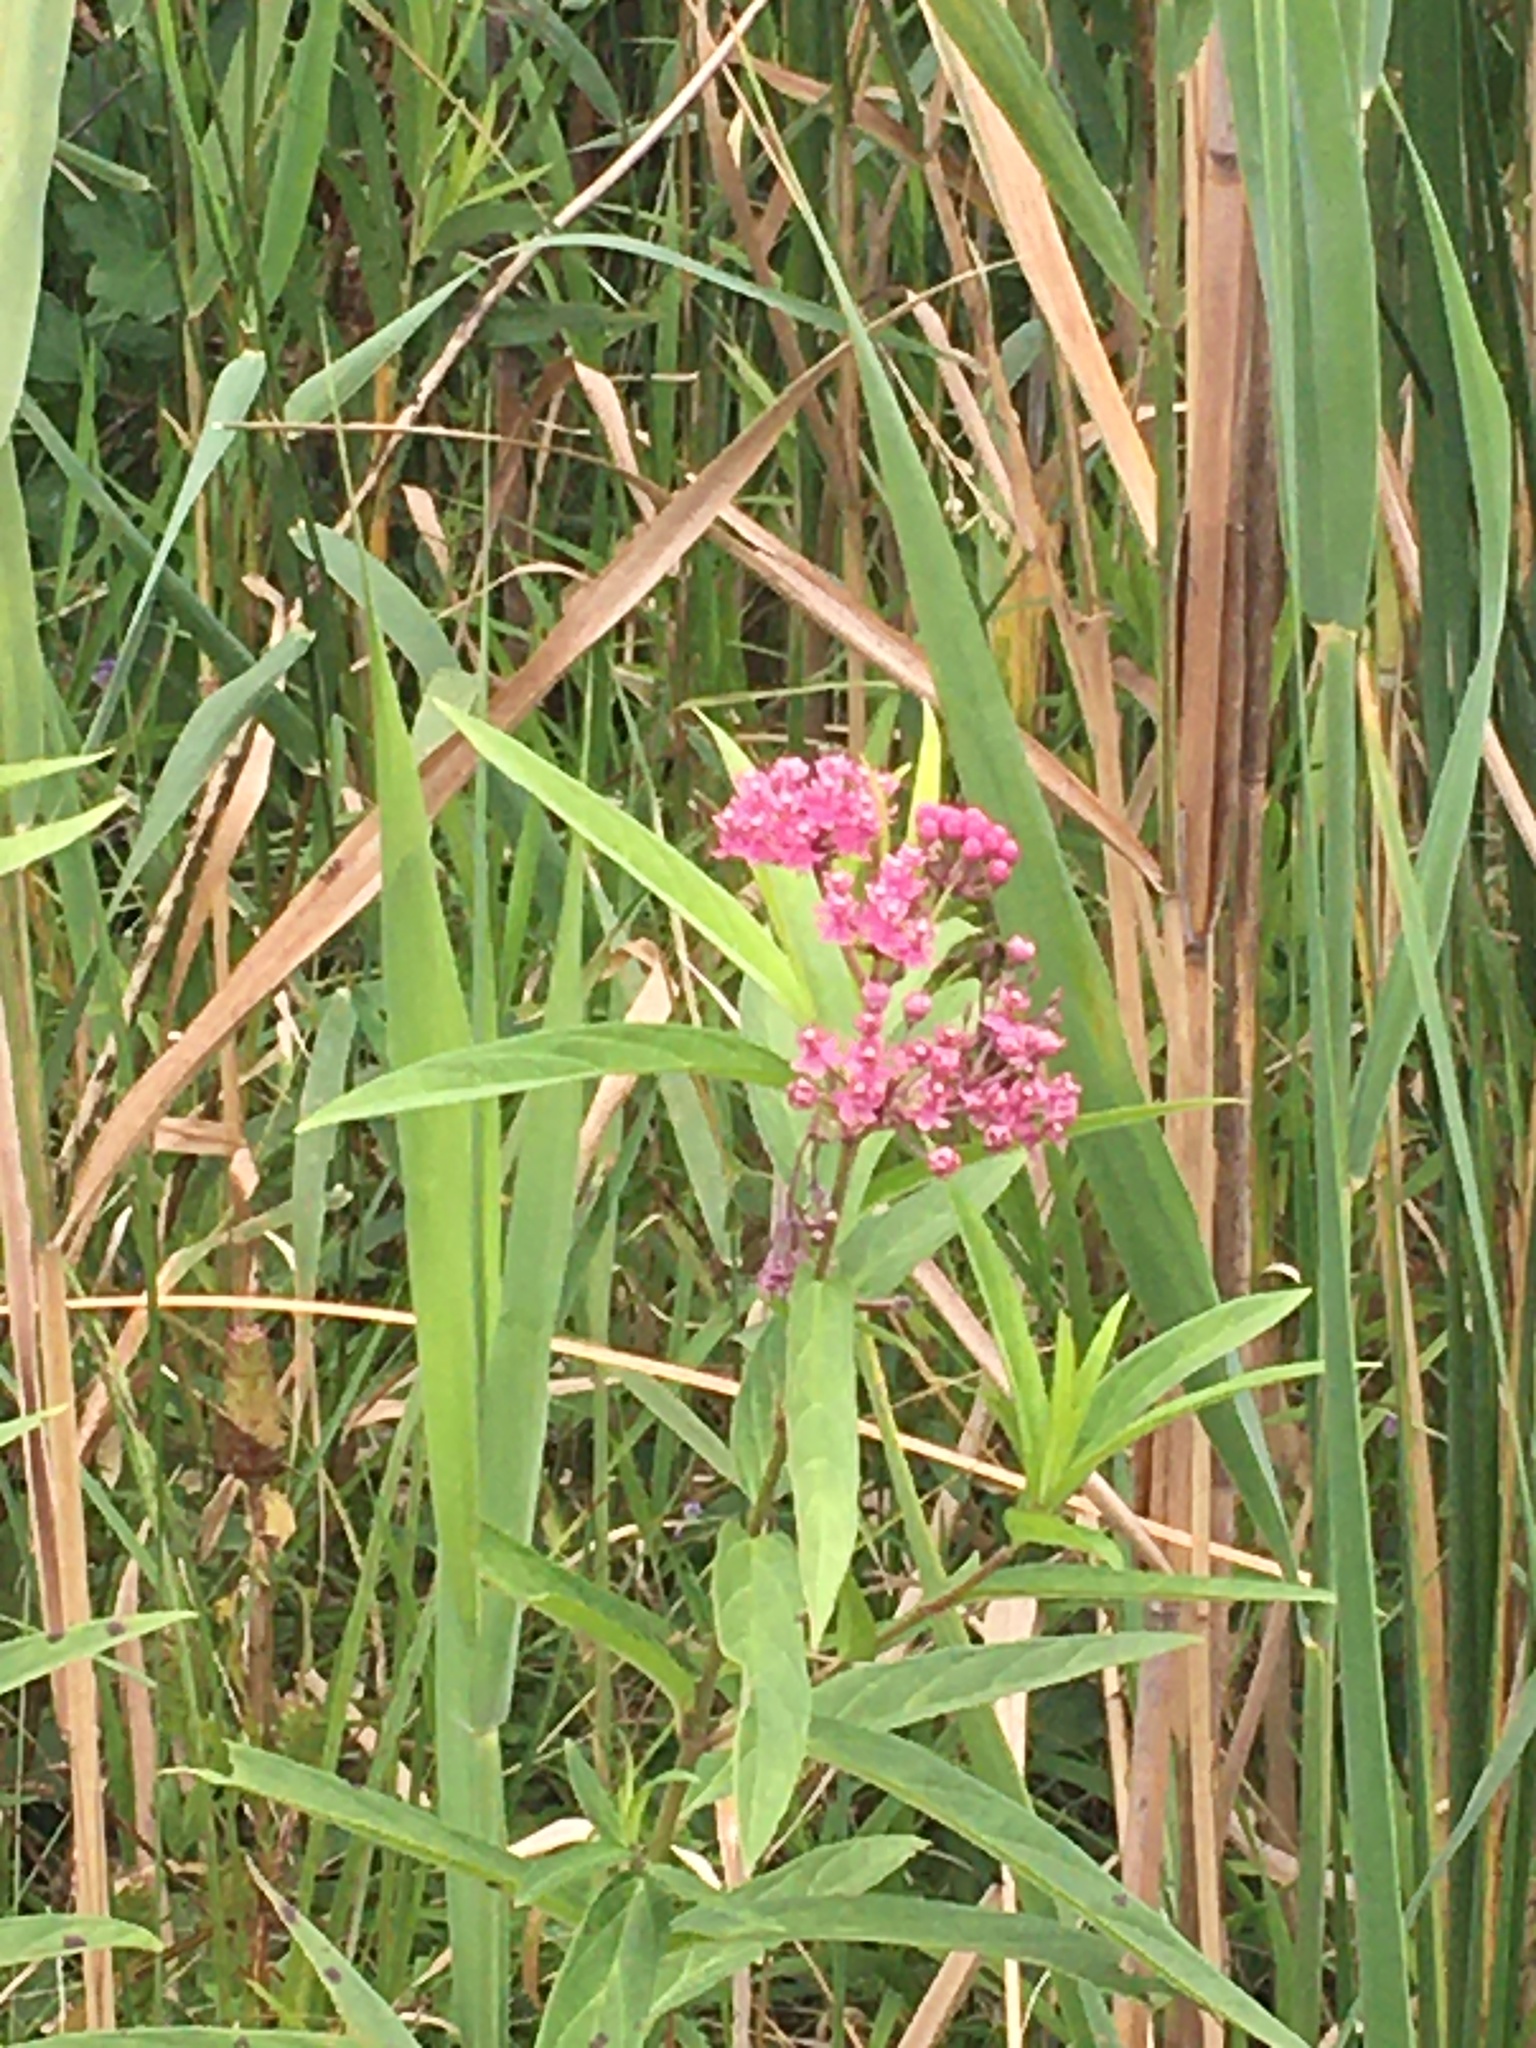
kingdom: Plantae
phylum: Tracheophyta
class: Magnoliopsida
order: Gentianales
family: Apocynaceae
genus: Asclepias
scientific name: Asclepias incarnata
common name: Swamp milkweed
